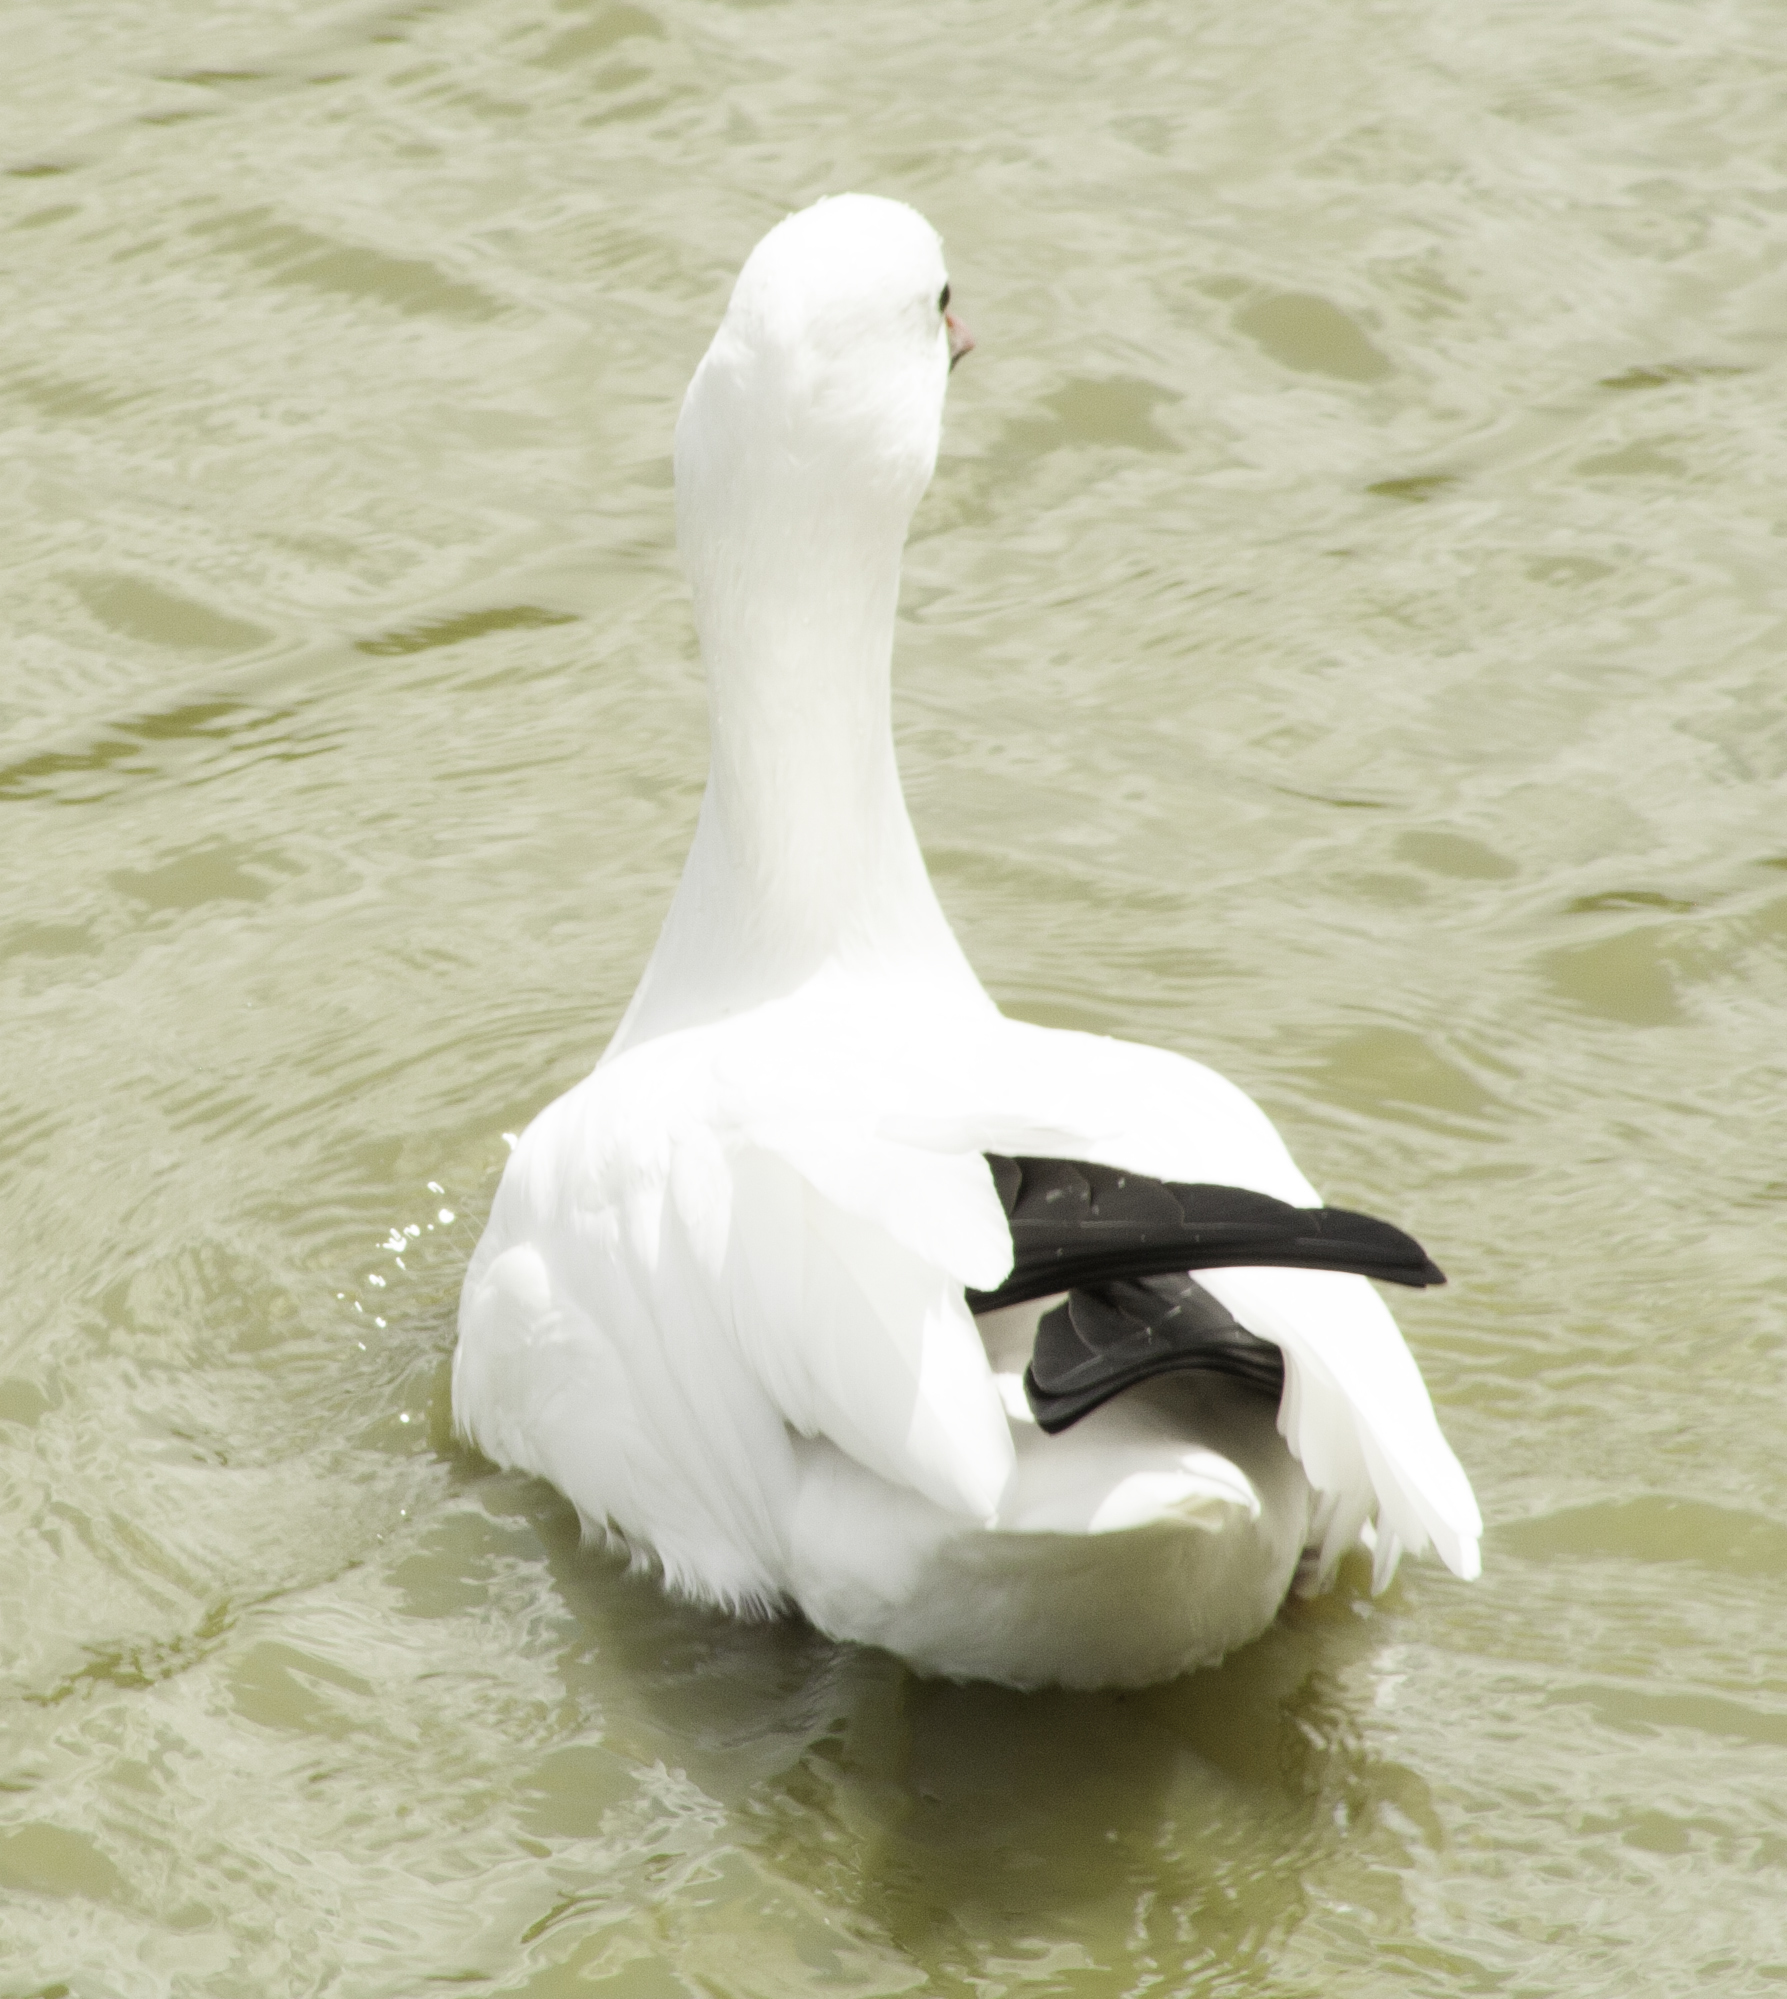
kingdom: Animalia
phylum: Chordata
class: Aves
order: Anseriformes
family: Anatidae
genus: Anser
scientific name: Anser
